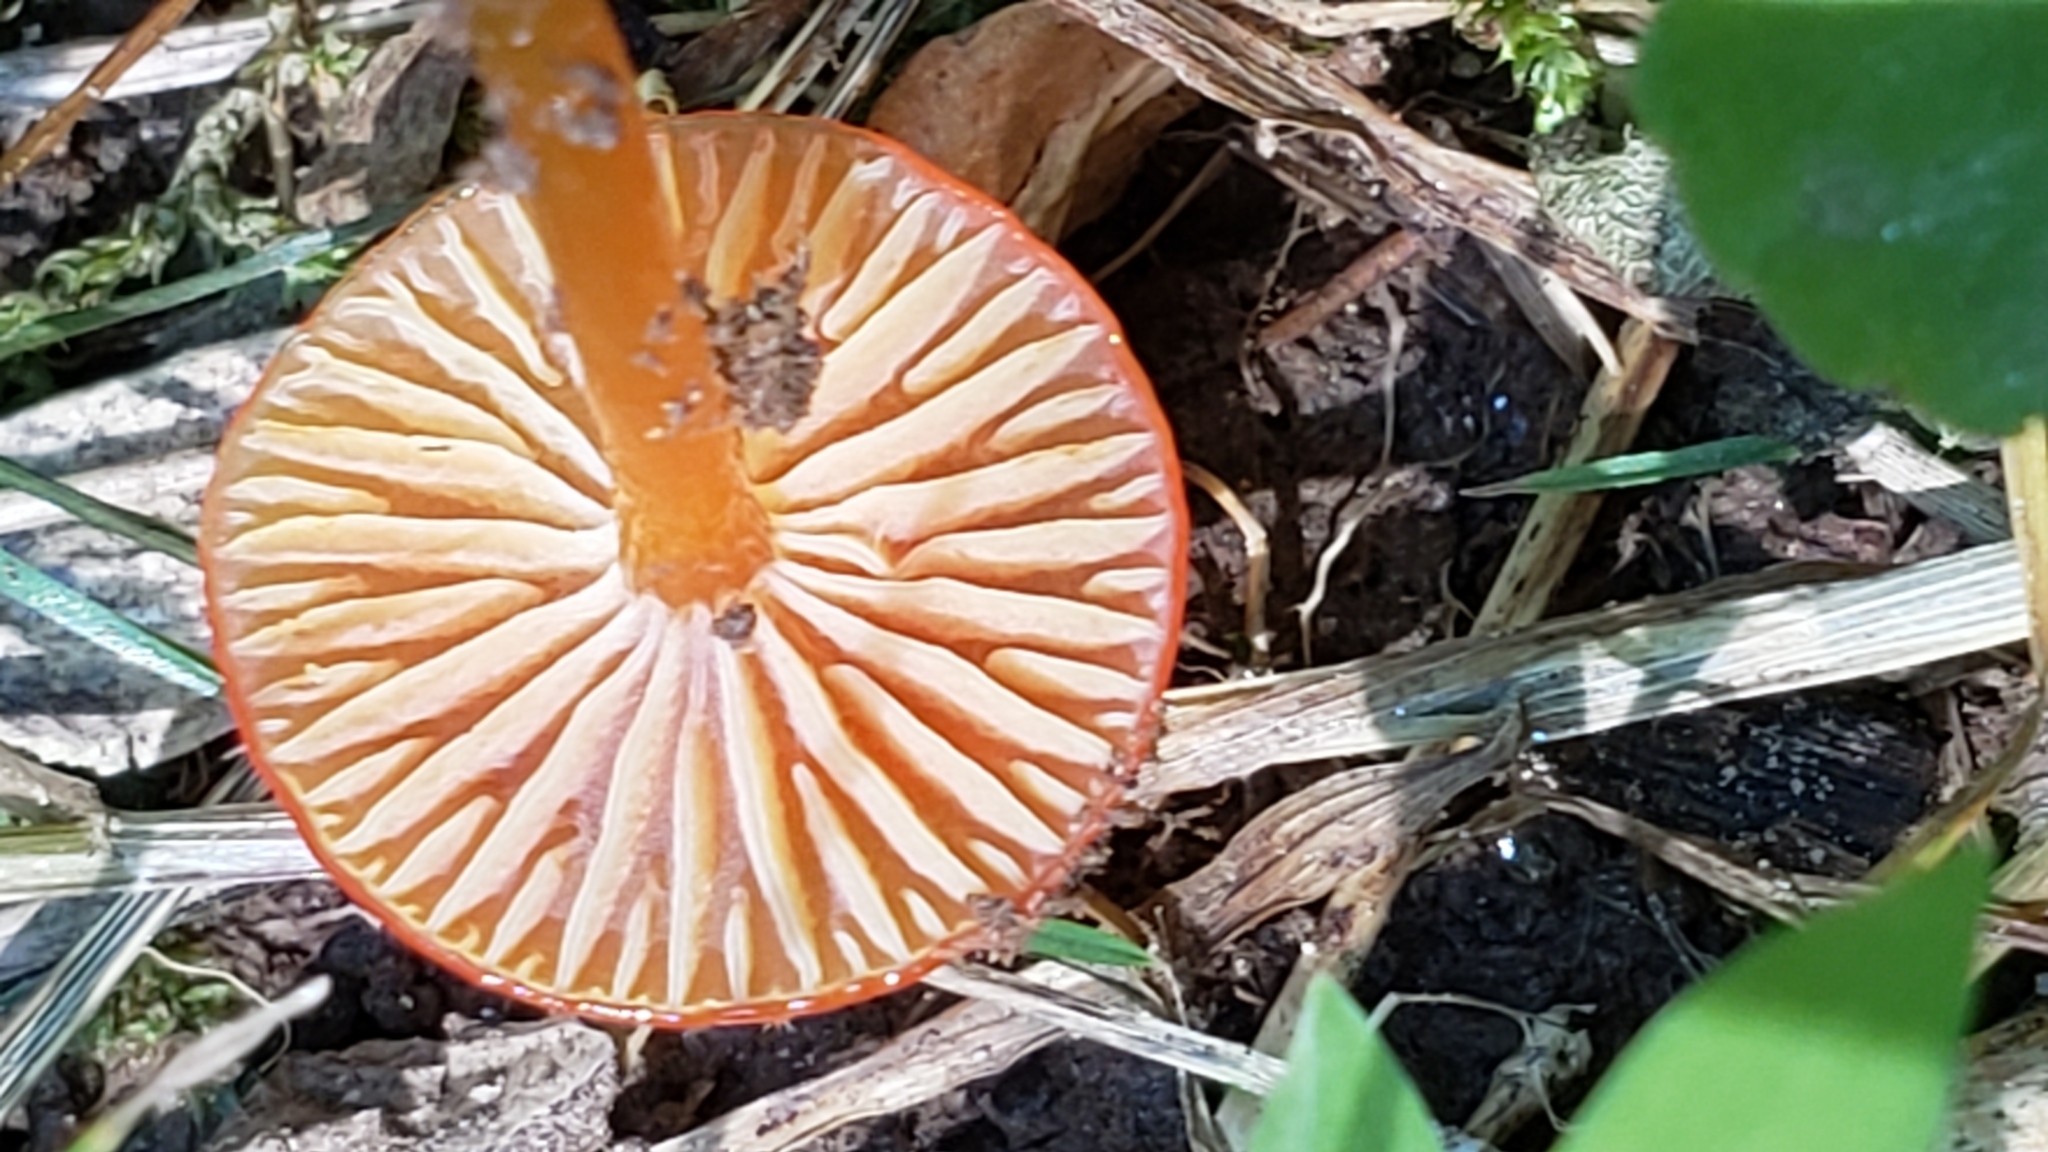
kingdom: Fungi
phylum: Basidiomycota
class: Agaricomycetes
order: Agaricales
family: Hygrophoraceae
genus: Gliophorus
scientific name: Gliophorus psittacinus
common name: Parrot wax-cap
